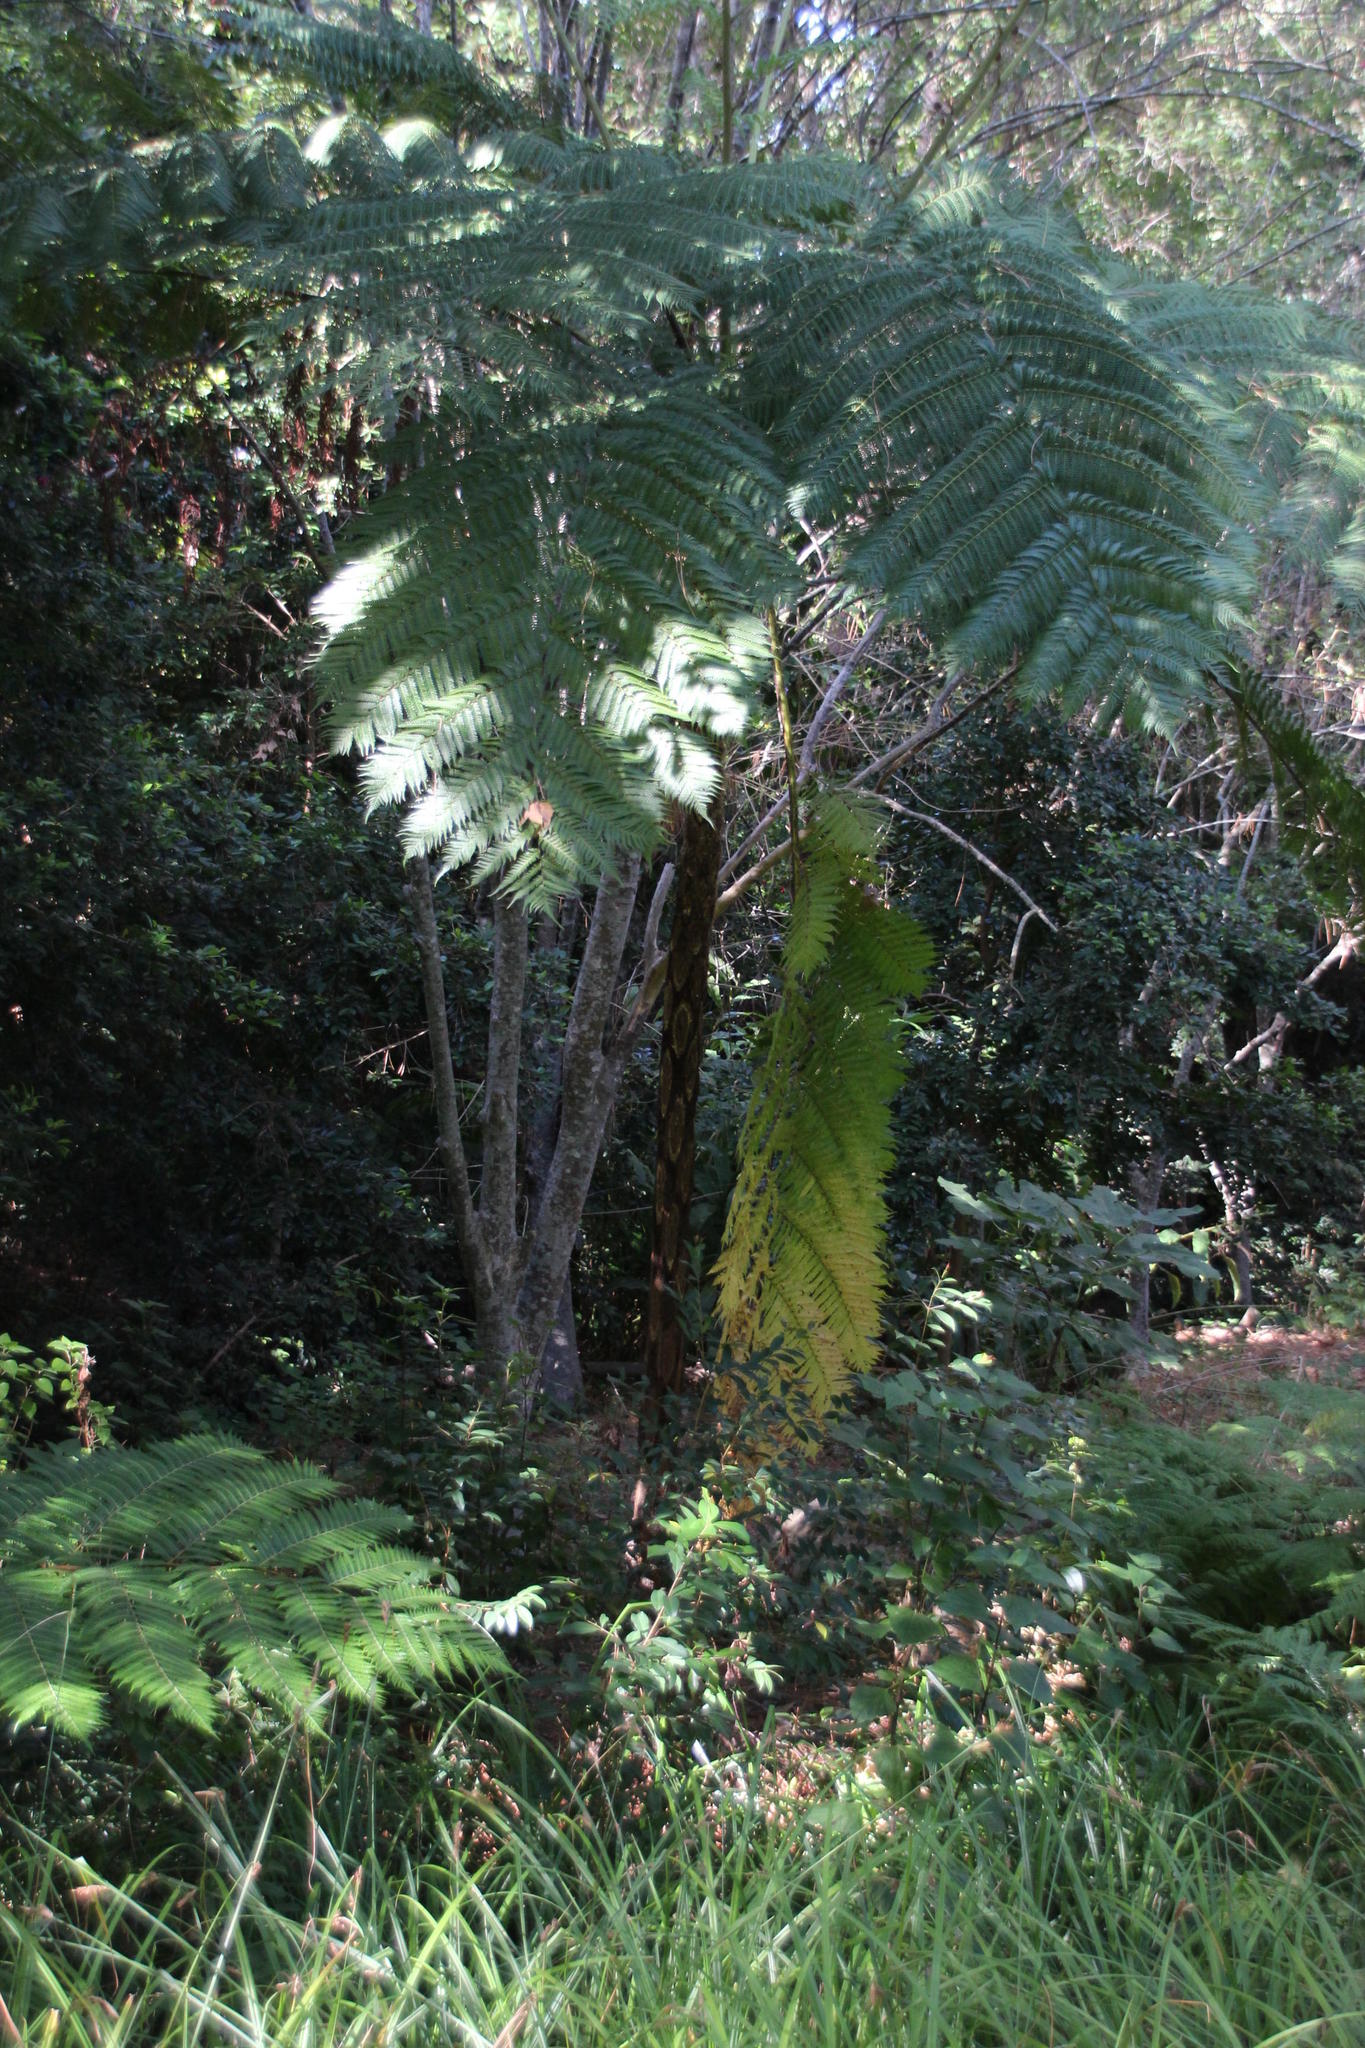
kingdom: Plantae
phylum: Tracheophyta
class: Polypodiopsida
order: Cyatheales
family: Cyatheaceae
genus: Sphaeropteris
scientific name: Sphaeropteris cooperi
